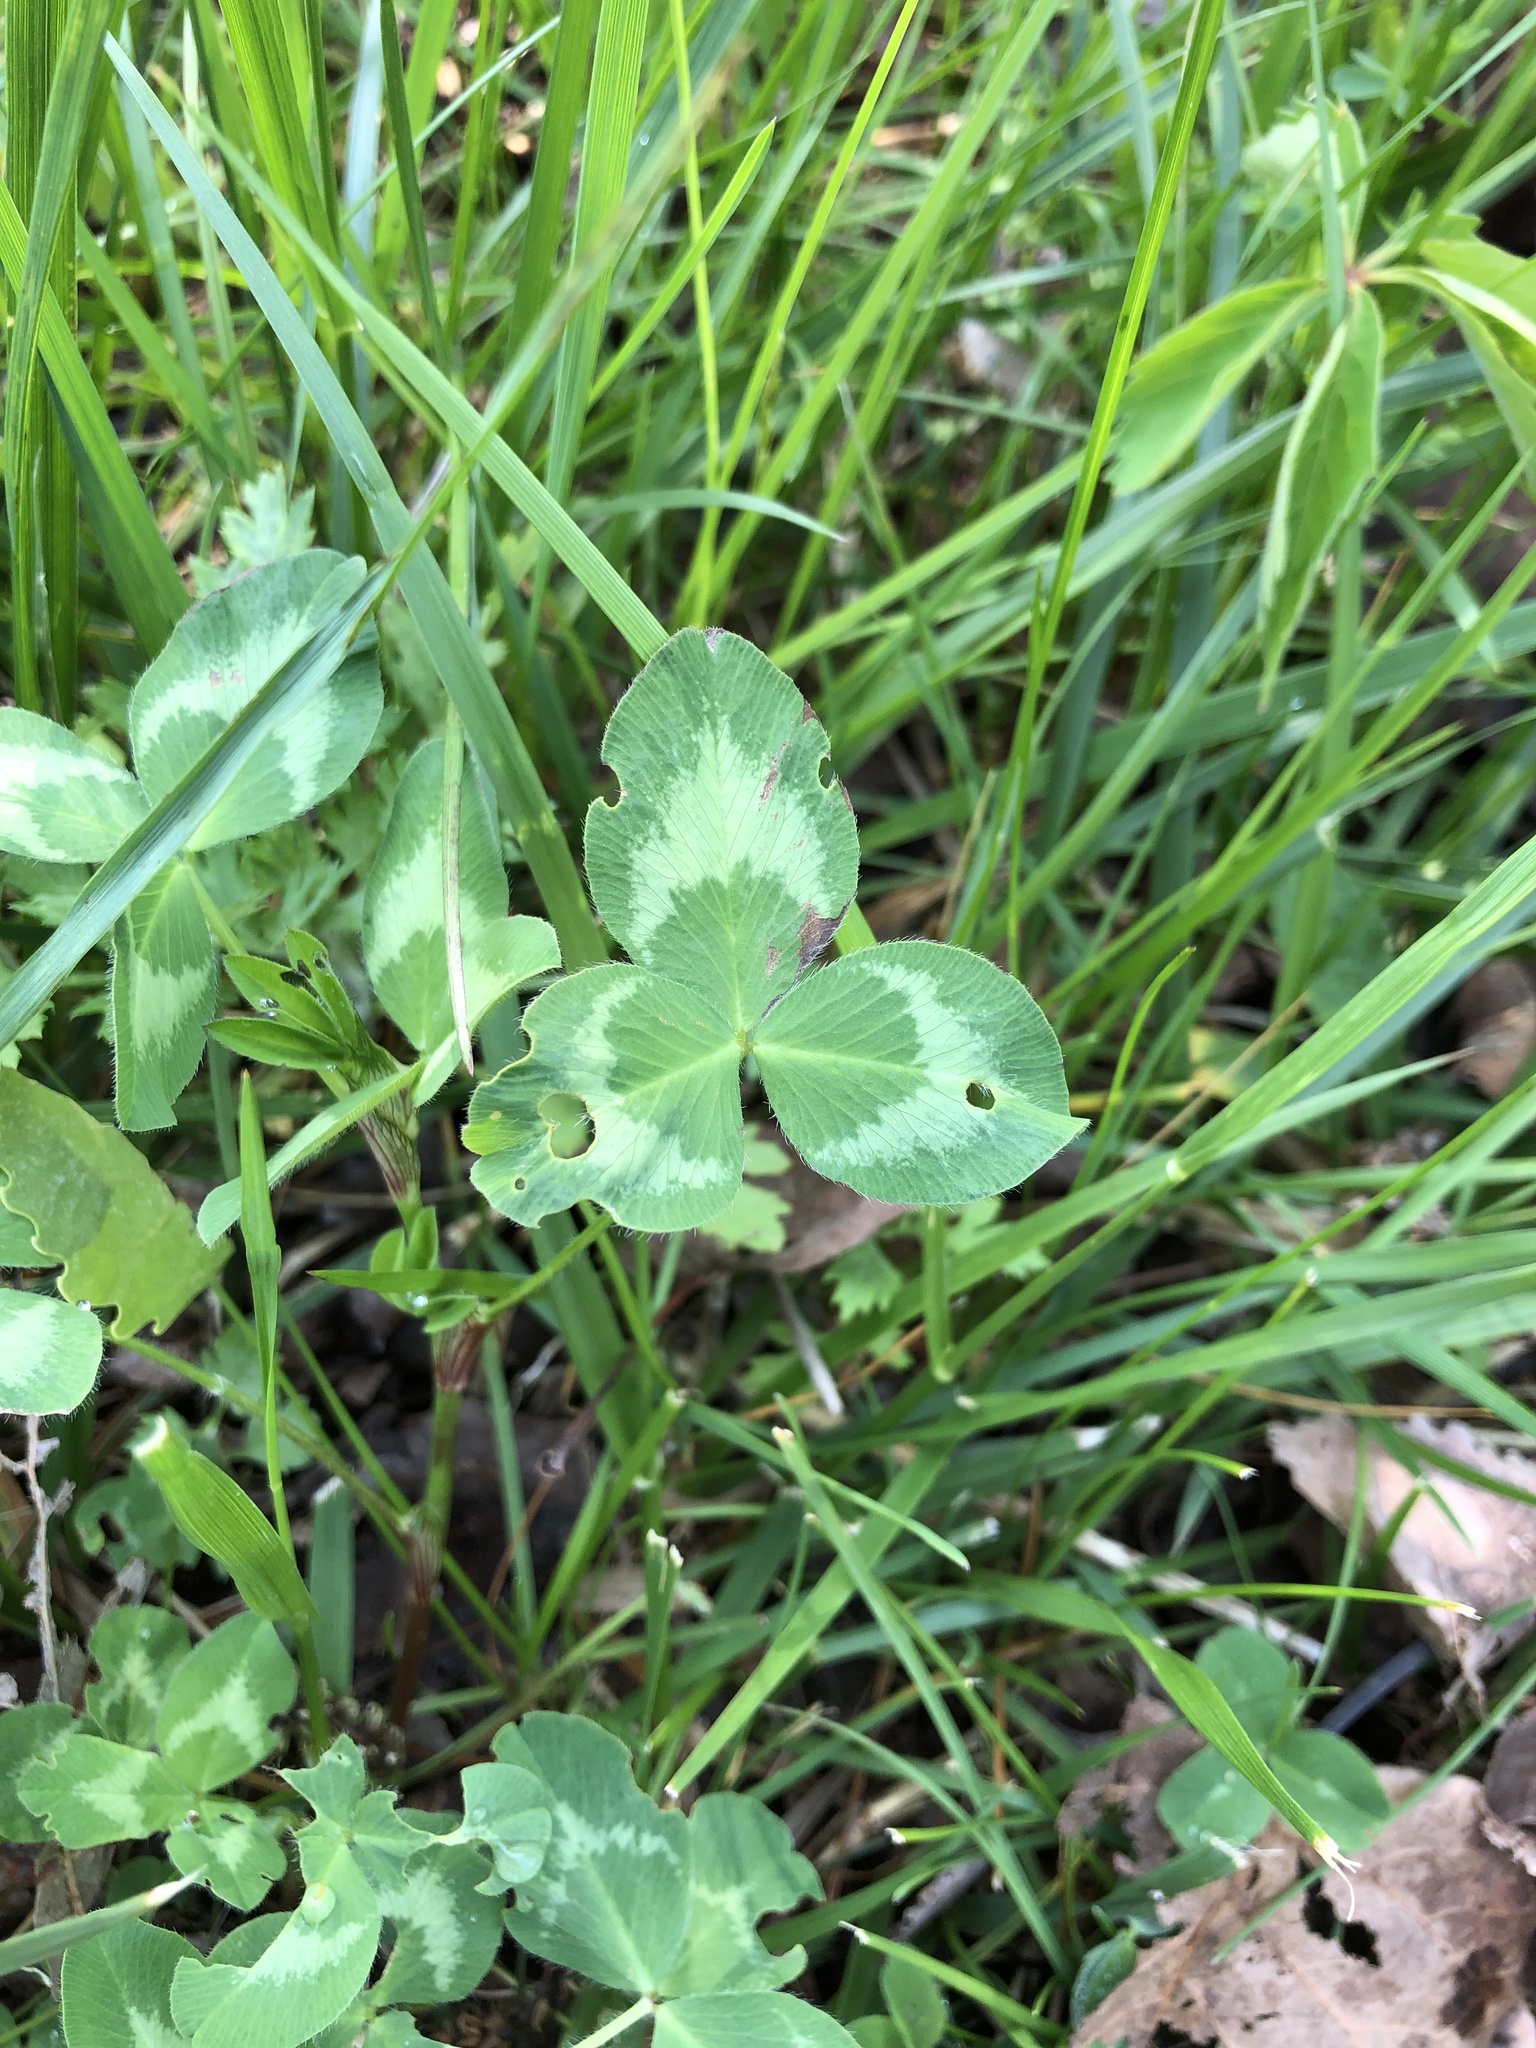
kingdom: Plantae
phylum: Tracheophyta
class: Magnoliopsida
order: Fabales
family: Fabaceae
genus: Trifolium
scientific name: Trifolium pratense
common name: Red clover
